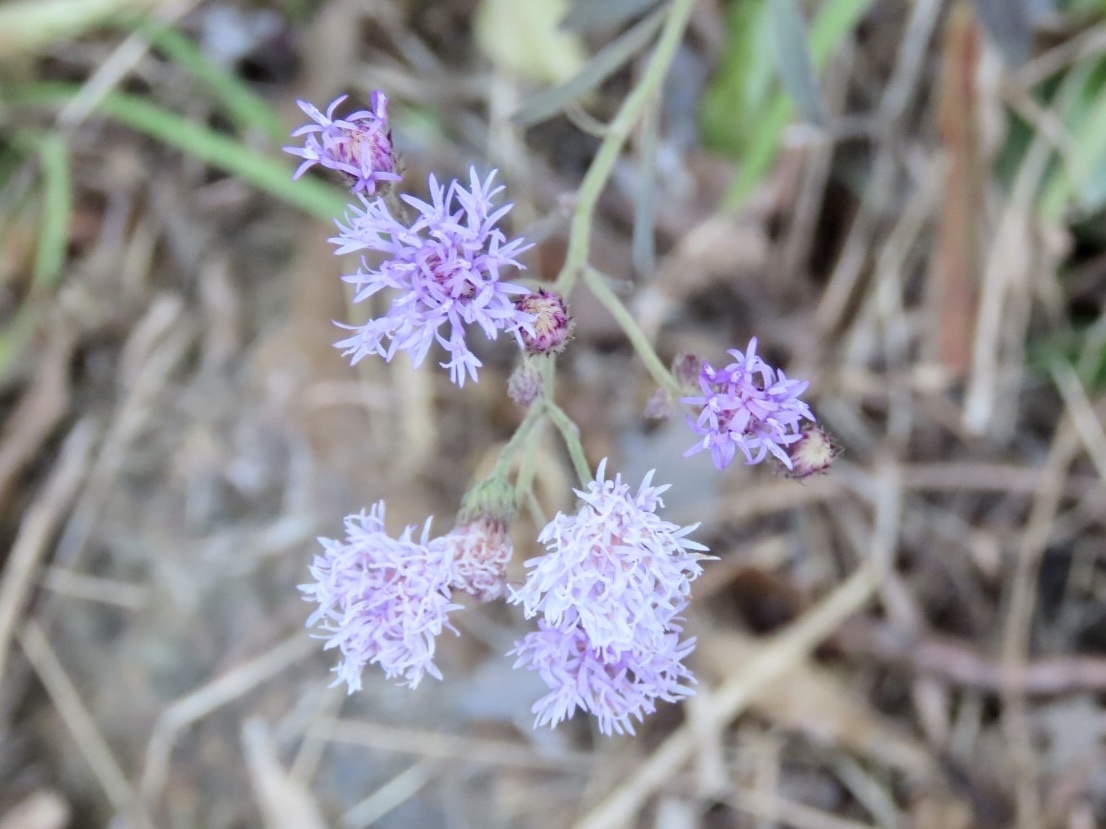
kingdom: Plantae
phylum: Tracheophyta
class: Magnoliopsida
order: Asterales
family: Asteraceae
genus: Cyanthillium
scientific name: Cyanthillium cinereum
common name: Little ironweed
